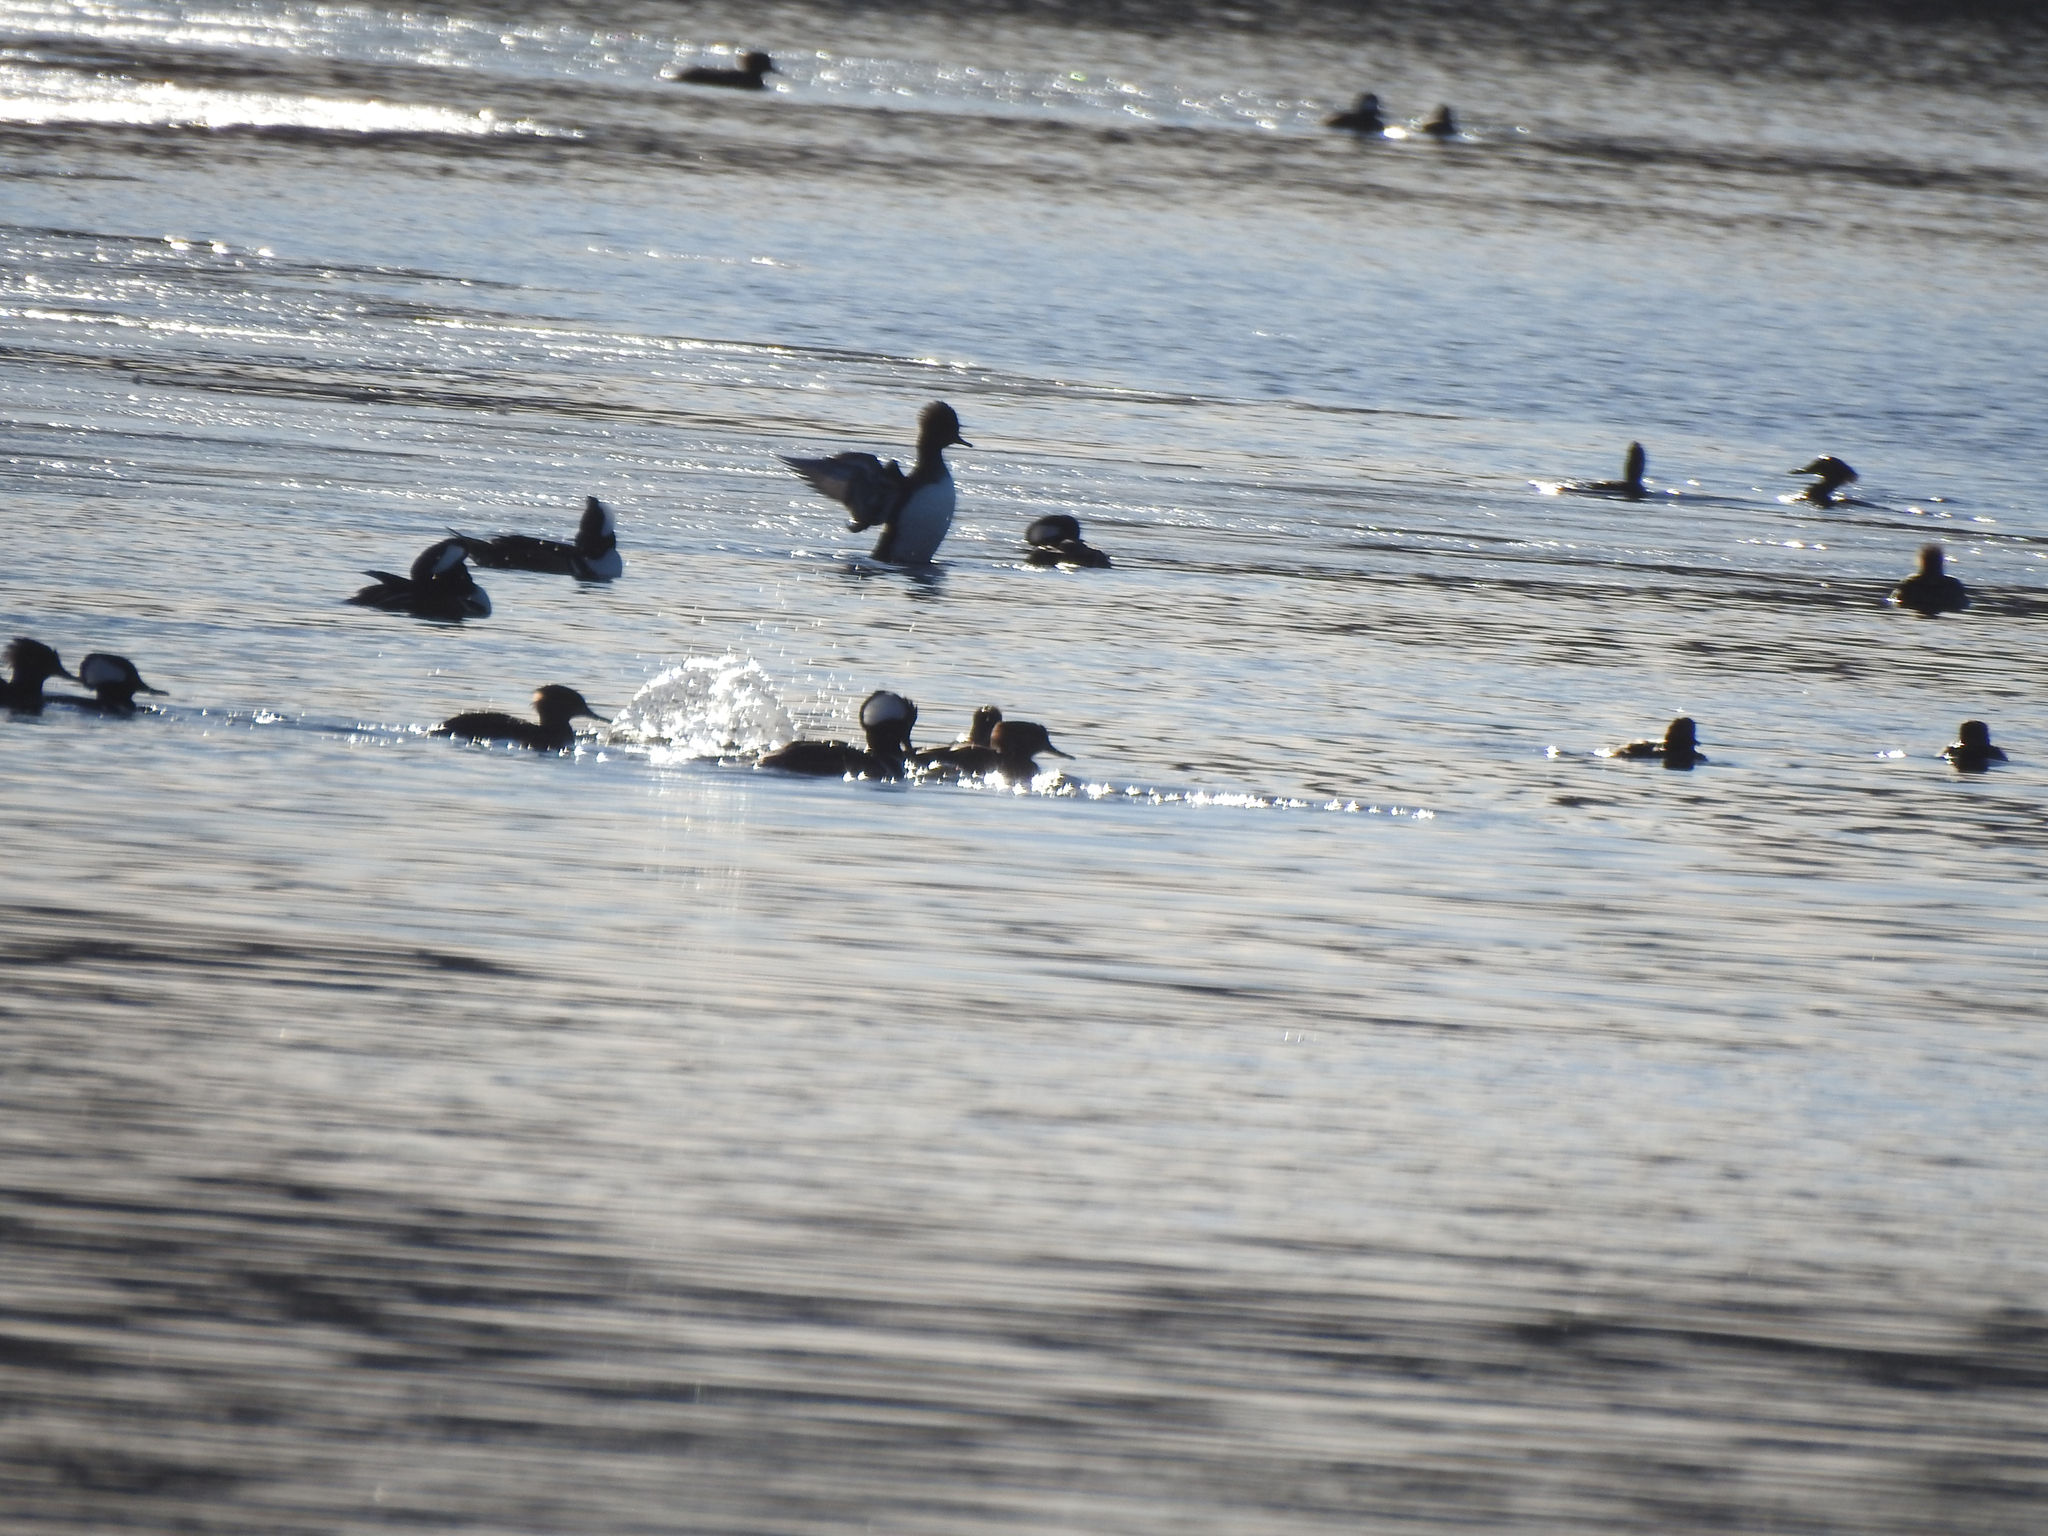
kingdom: Animalia
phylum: Chordata
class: Aves
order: Anseriformes
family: Anatidae
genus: Lophodytes
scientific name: Lophodytes cucullatus
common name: Hooded merganser
